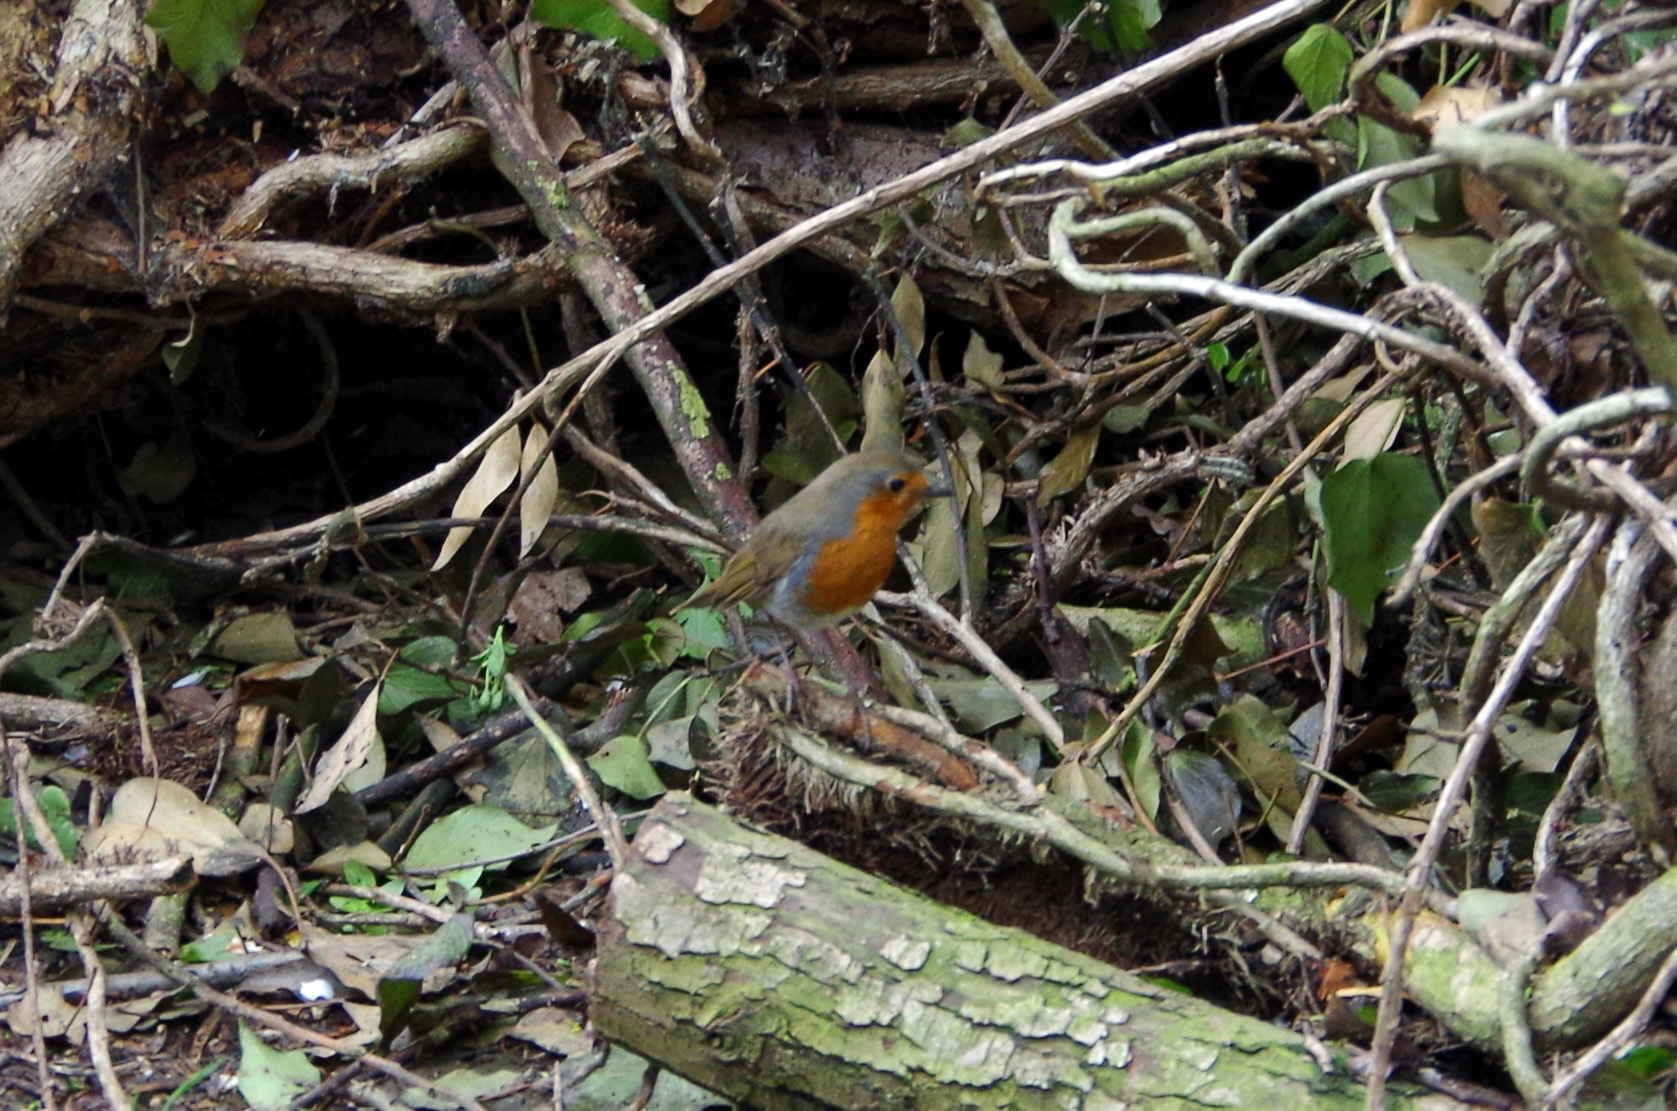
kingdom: Animalia
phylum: Chordata
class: Aves
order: Passeriformes
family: Muscicapidae
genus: Erithacus
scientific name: Erithacus rubecula
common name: European robin
